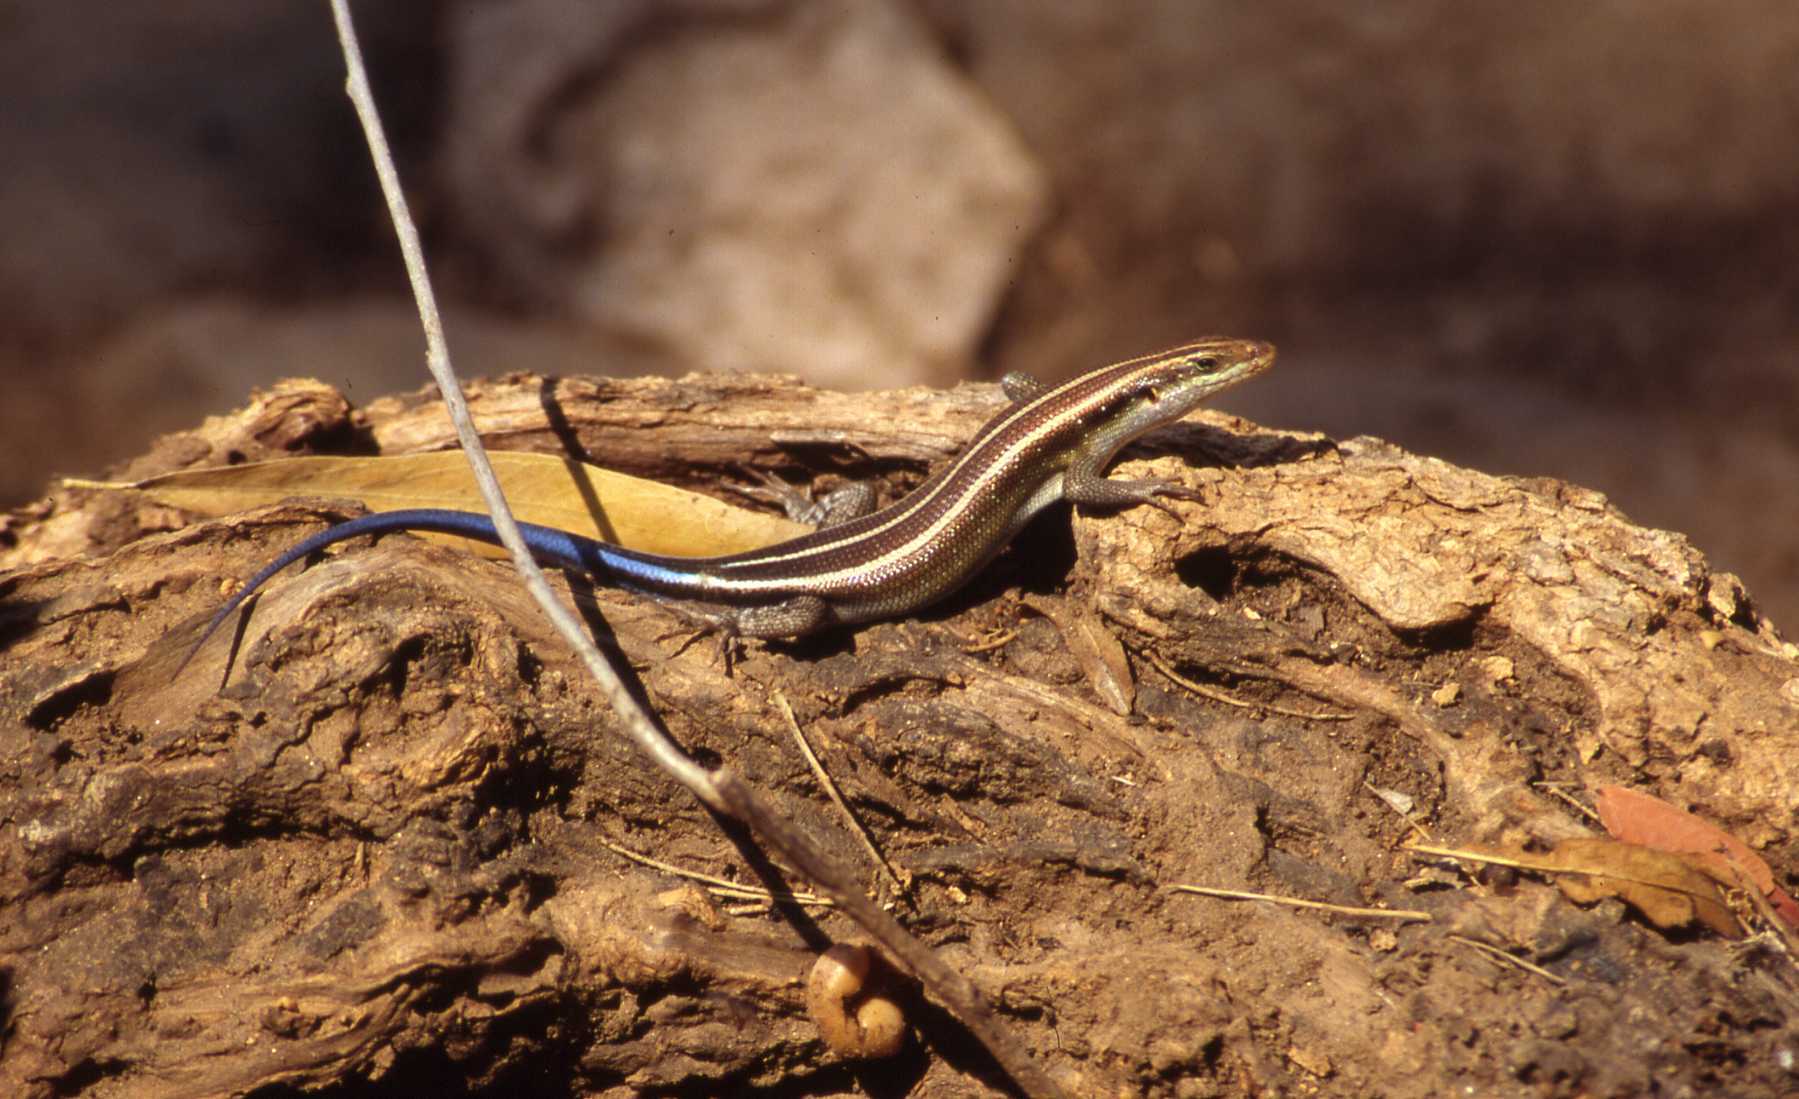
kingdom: Animalia
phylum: Chordata
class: Squamata
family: Scincidae
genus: Trachylepis
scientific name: Trachylepis margaritifera
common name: Rainbow skink
